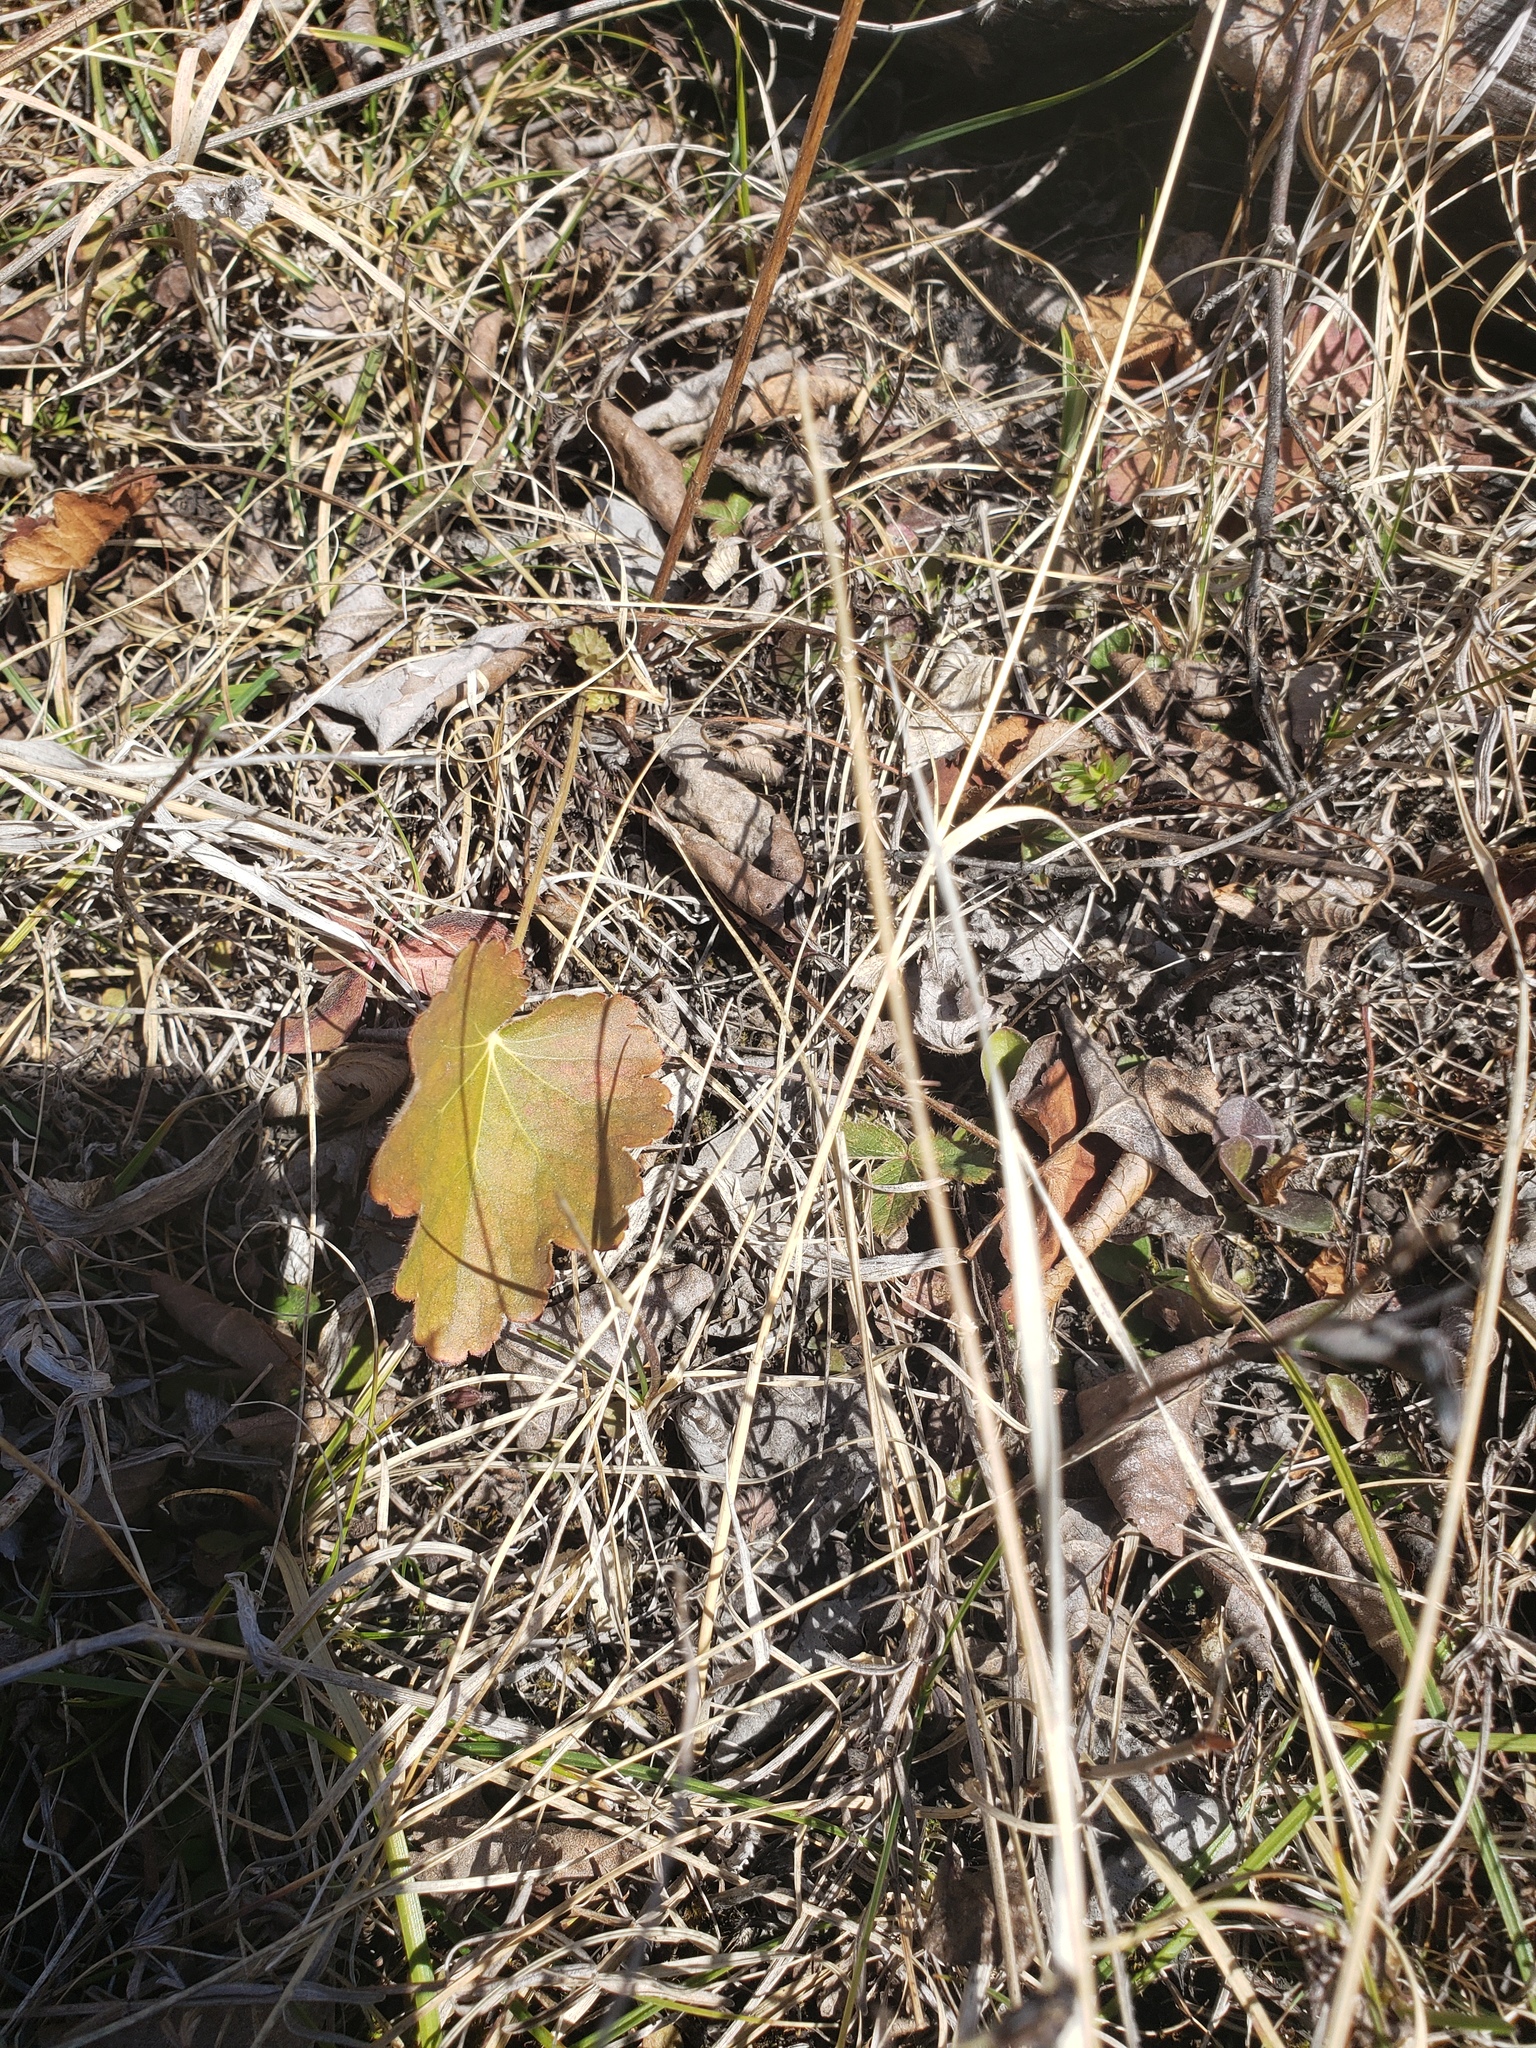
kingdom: Plantae
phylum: Tracheophyta
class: Magnoliopsida
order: Saxifragales
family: Saxifragaceae
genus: Heuchera
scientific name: Heuchera richardsonii
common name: Richardson's alumroot
